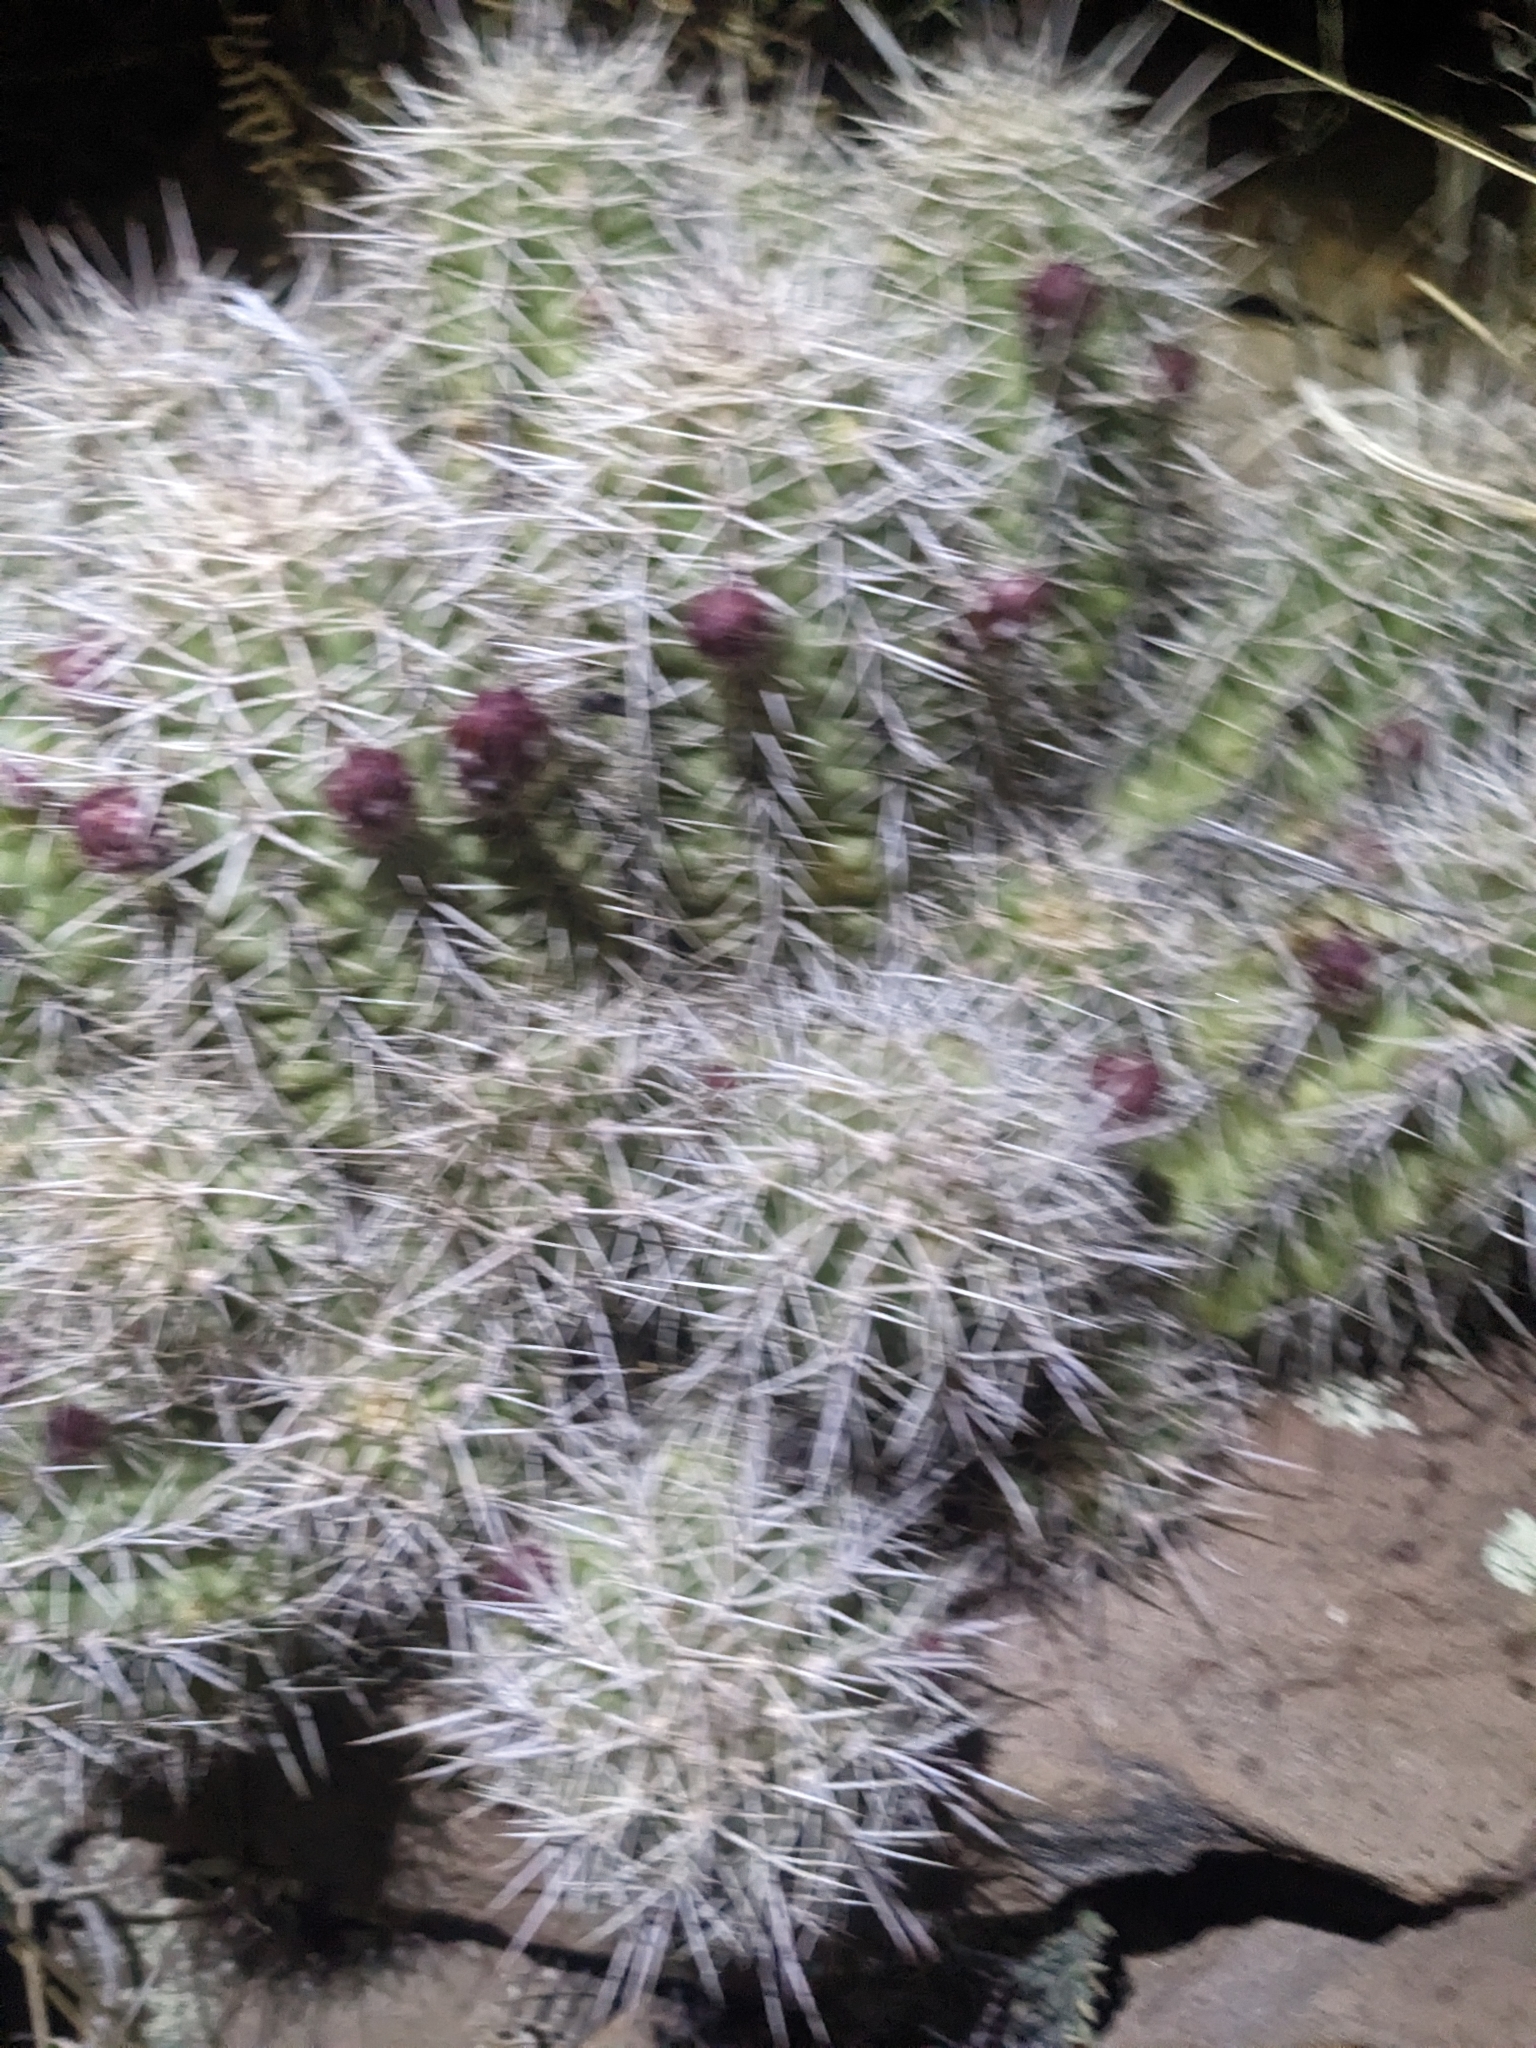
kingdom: Plantae
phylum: Tracheophyta
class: Magnoliopsida
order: Caryophyllales
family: Cactaceae
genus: Echinocereus
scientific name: Echinocereus bakeri
